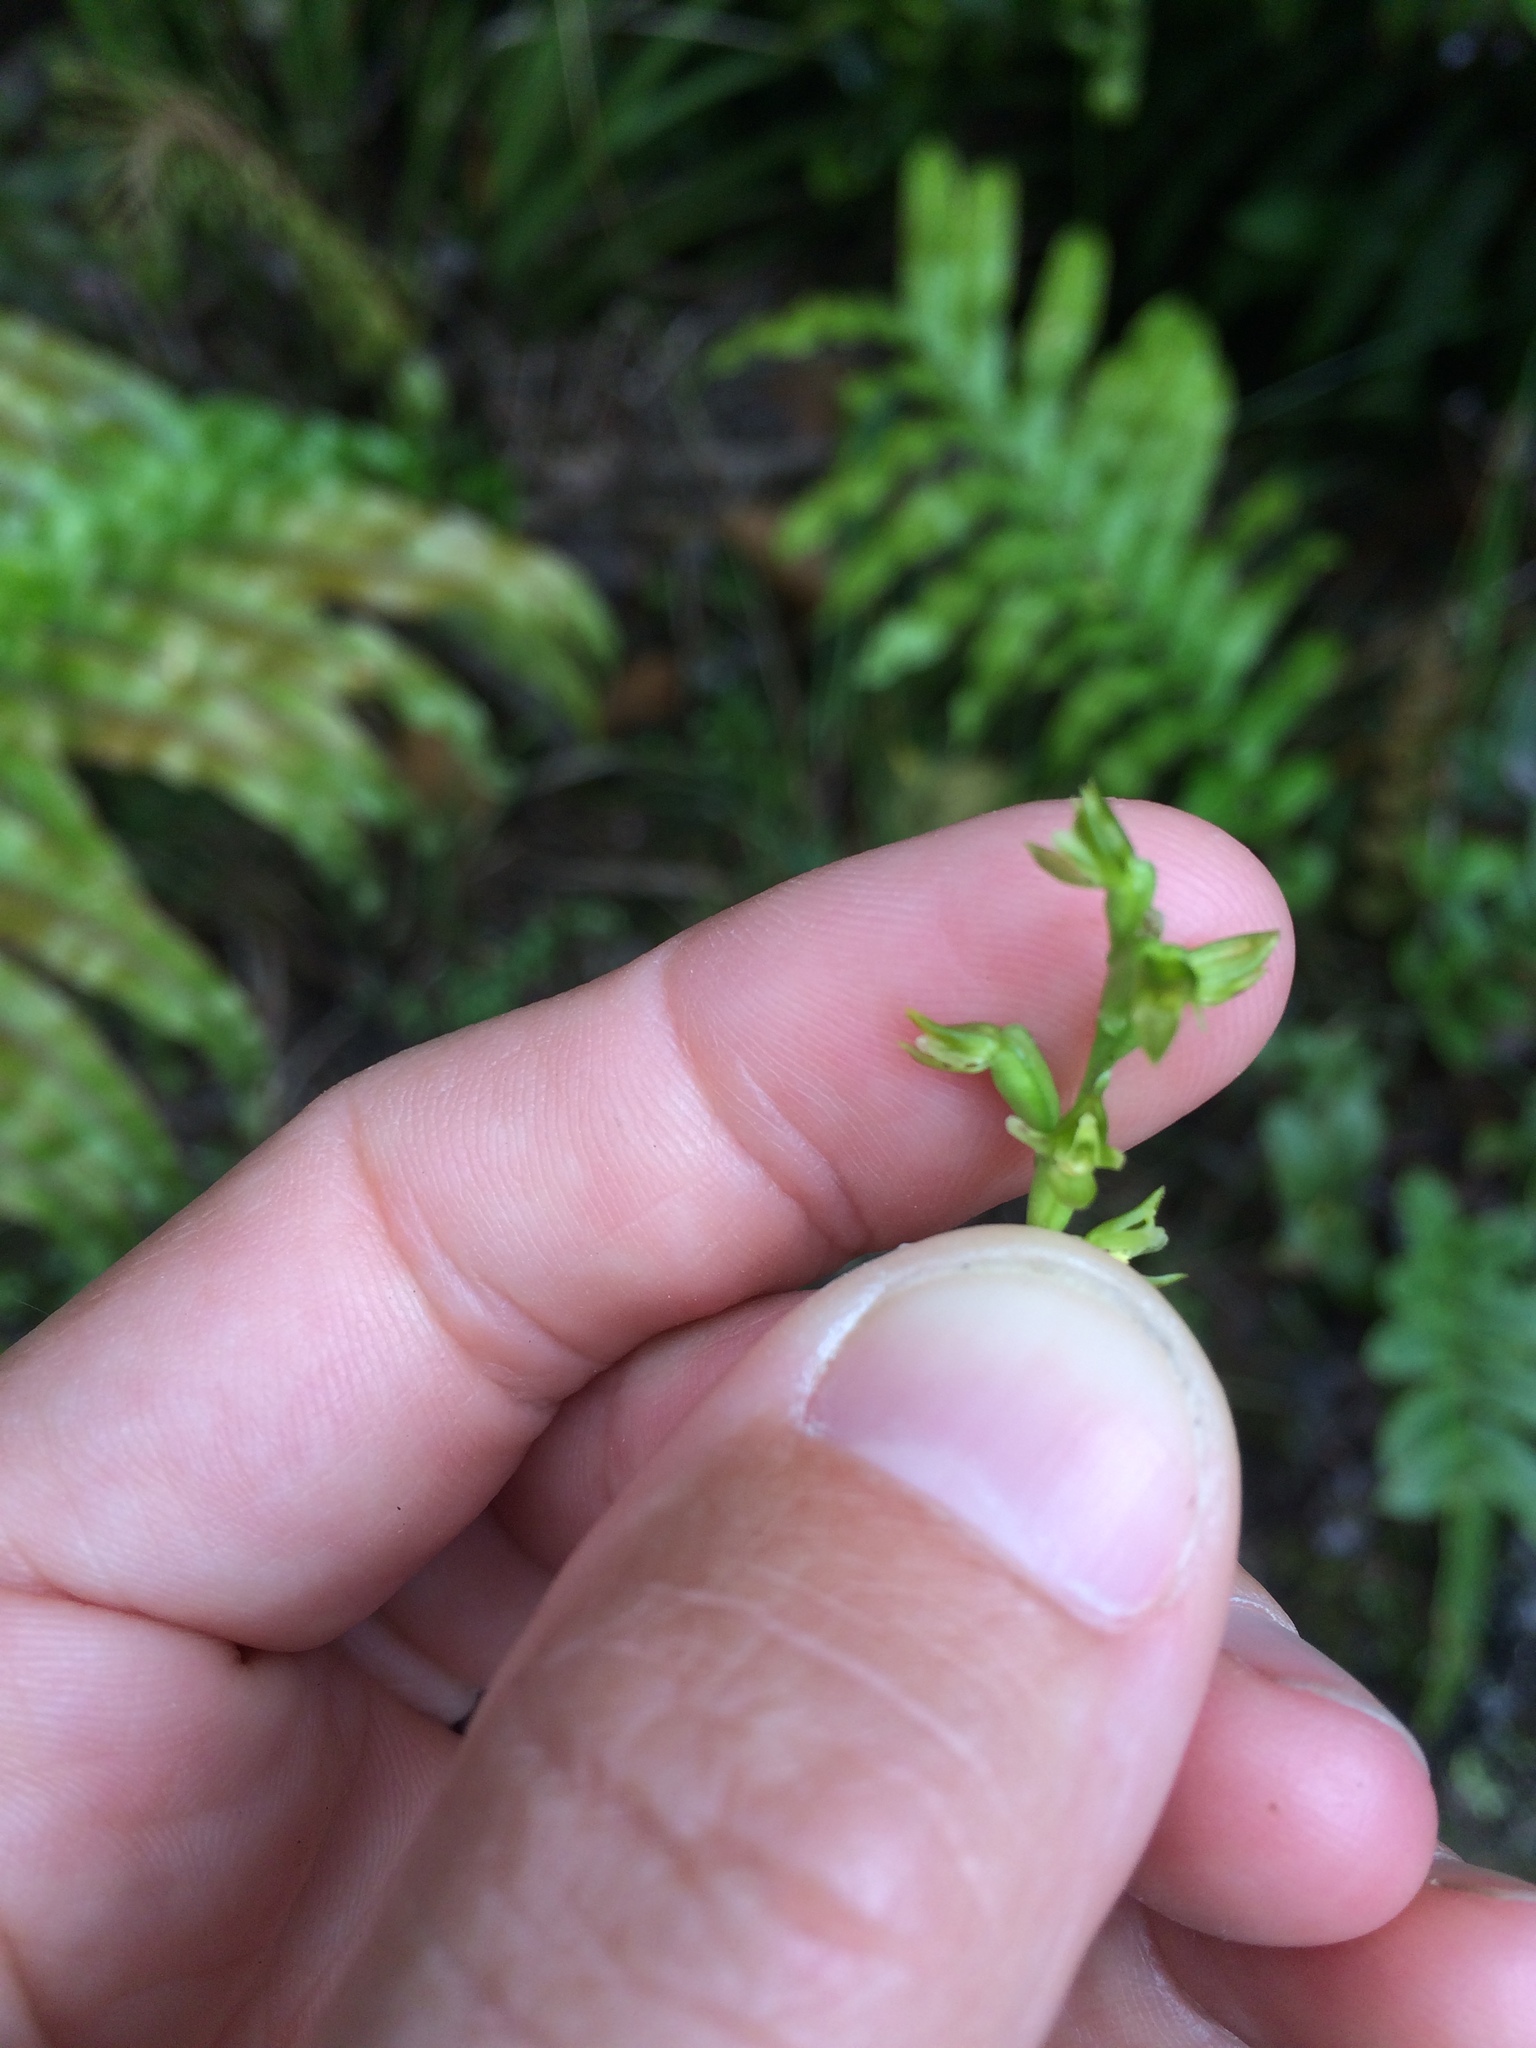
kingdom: Plantae
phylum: Tracheophyta
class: Liliopsida
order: Asparagales
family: Orchidaceae
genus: Prasophyllum
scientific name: Prasophyllum colensoi
